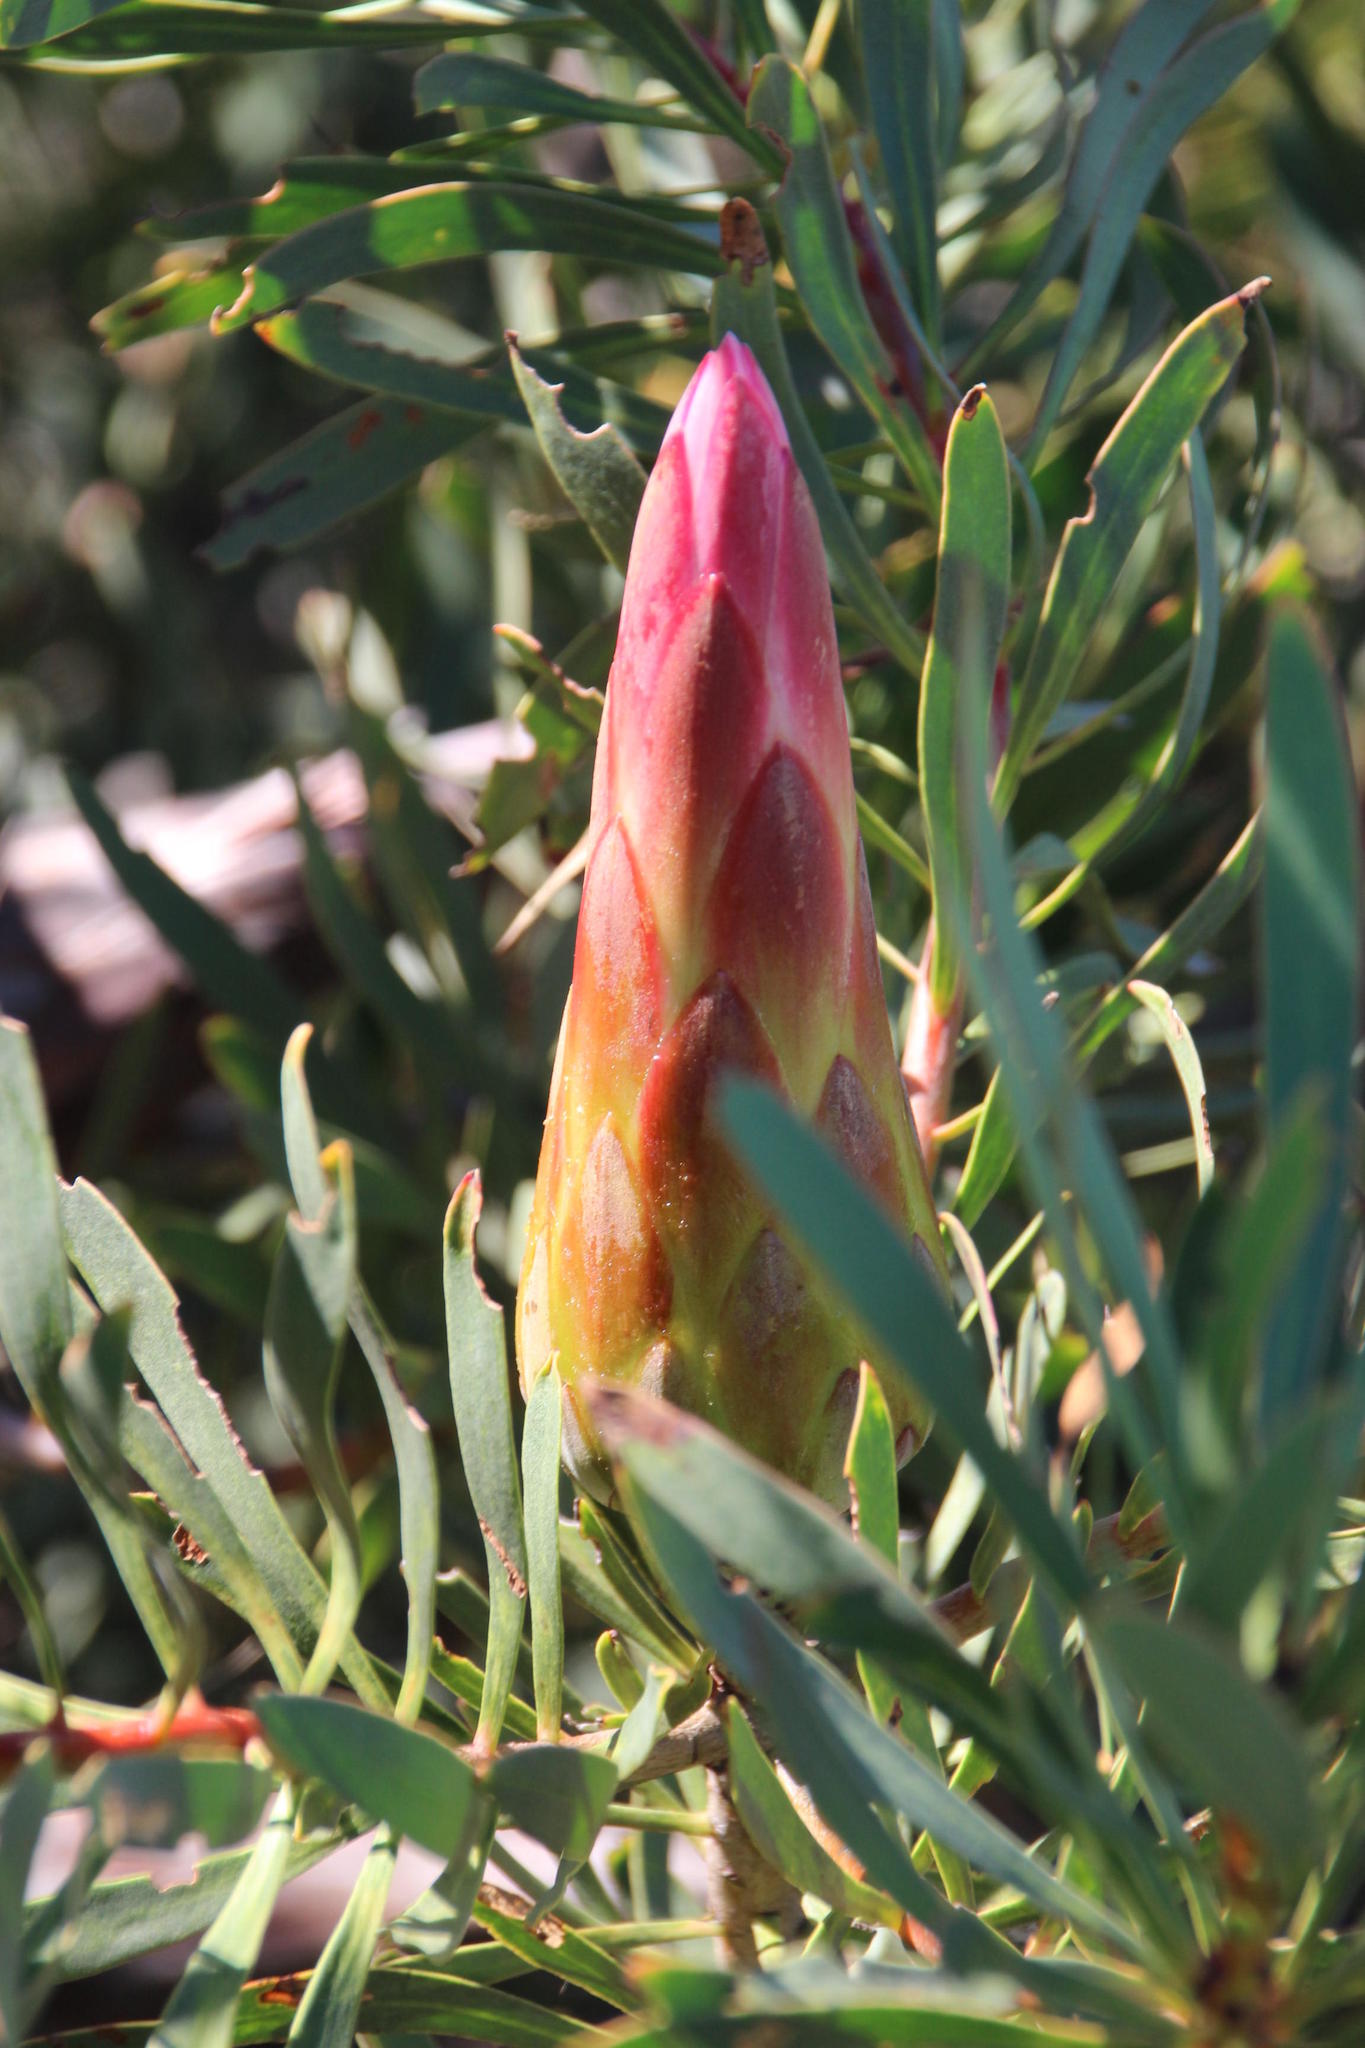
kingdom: Plantae
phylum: Tracheophyta
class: Magnoliopsida
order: Proteales
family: Proteaceae
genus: Protea
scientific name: Protea repens
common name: Sugarbush
